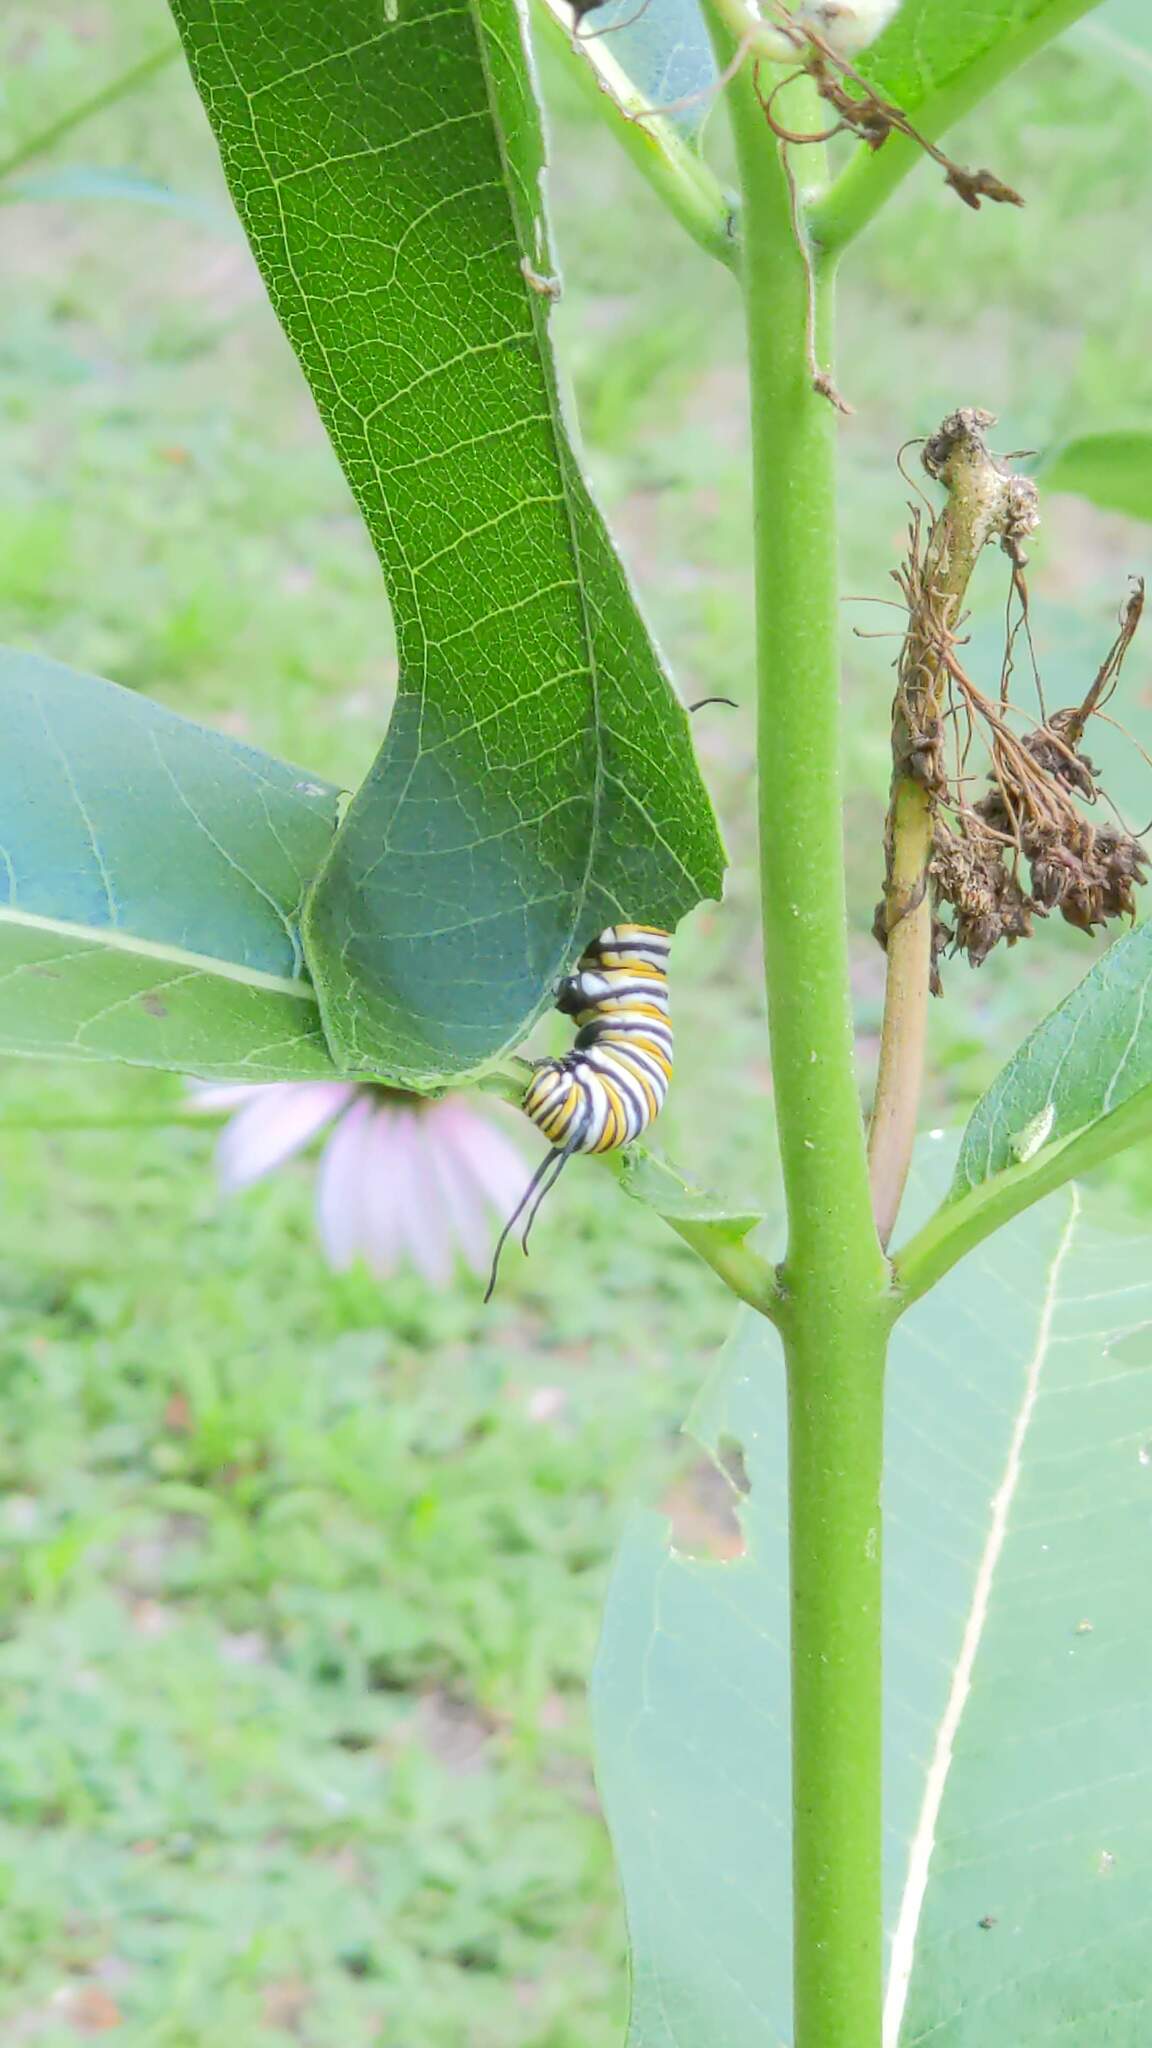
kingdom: Animalia
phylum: Arthropoda
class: Insecta
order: Lepidoptera
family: Nymphalidae
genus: Danaus
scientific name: Danaus plexippus
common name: Monarch
